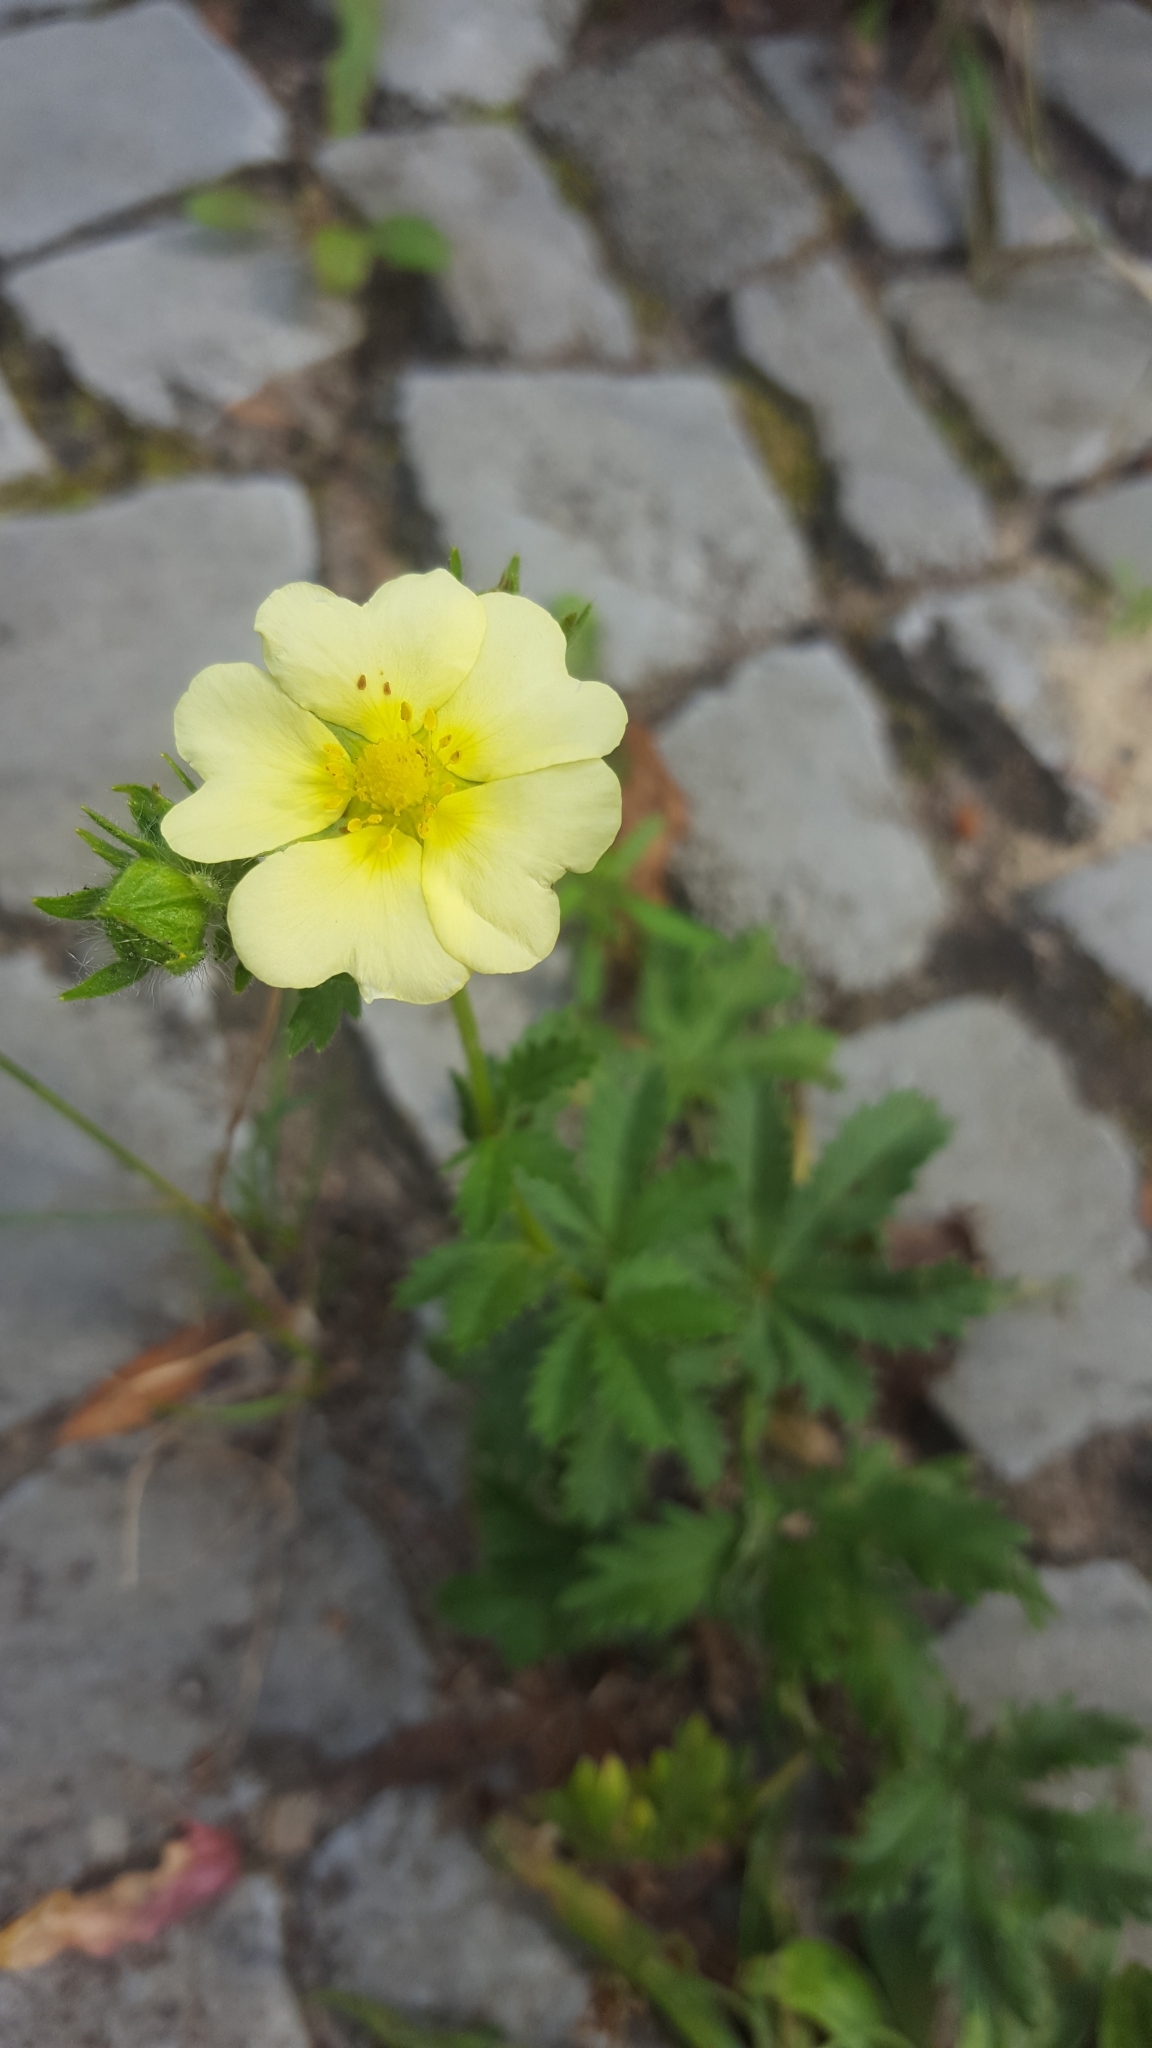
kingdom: Plantae
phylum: Tracheophyta
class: Magnoliopsida
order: Rosales
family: Rosaceae
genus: Potentilla
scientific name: Potentilla recta
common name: Sulphur cinquefoil
